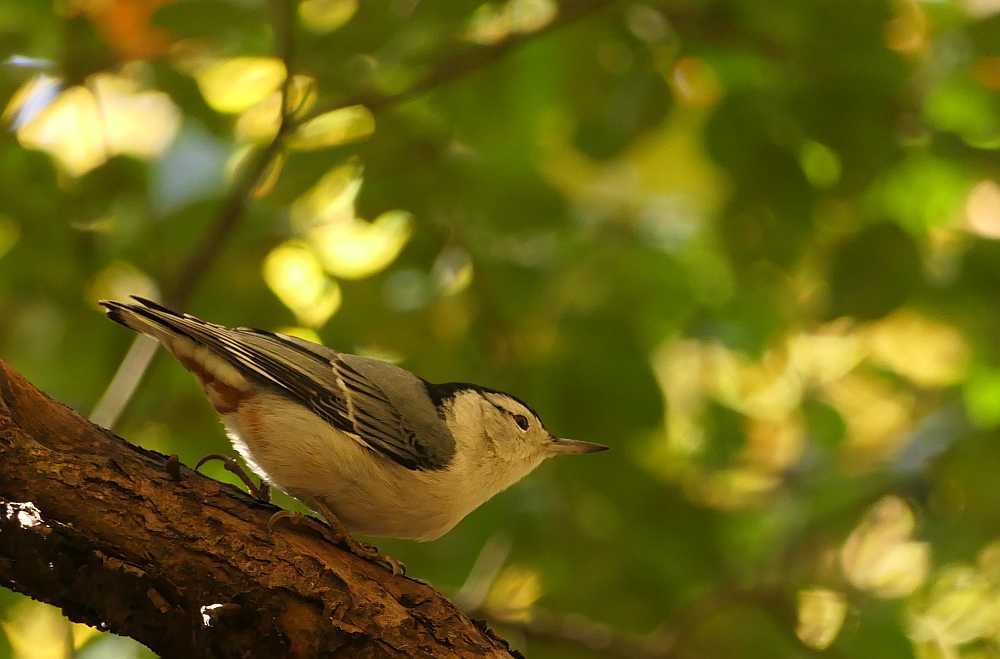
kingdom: Animalia
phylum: Chordata
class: Aves
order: Passeriformes
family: Sittidae
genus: Sitta
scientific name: Sitta carolinensis
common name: White-breasted nuthatch
